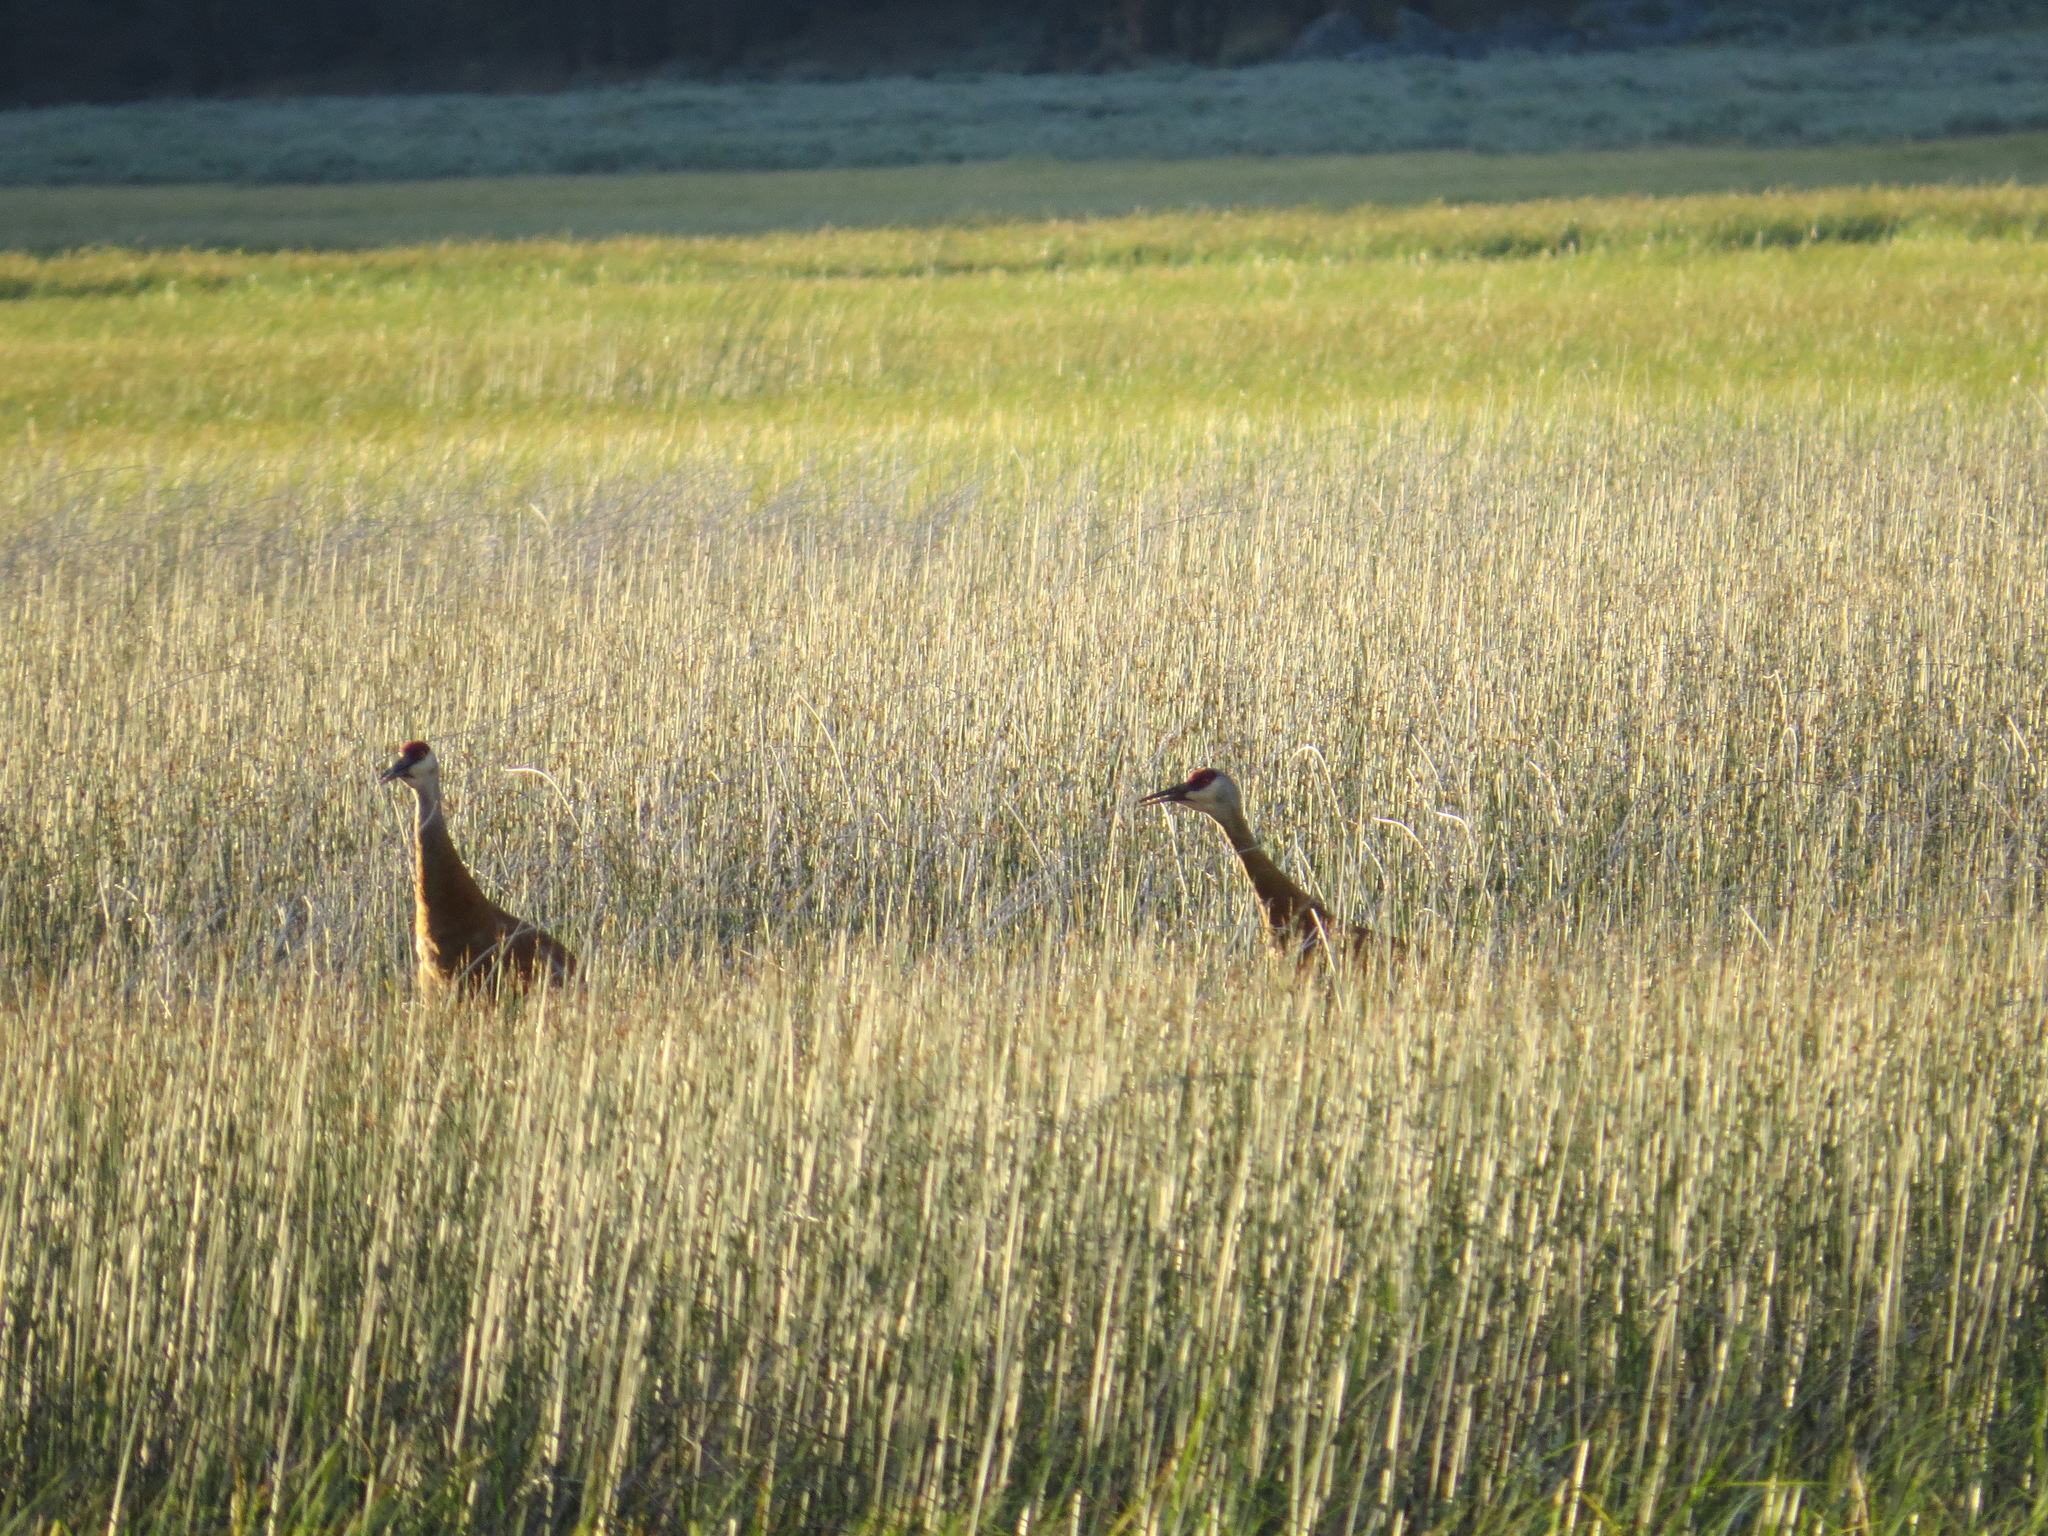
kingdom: Animalia
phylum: Chordata
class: Aves
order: Gruiformes
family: Gruidae
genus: Grus
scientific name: Grus canadensis
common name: Sandhill crane
